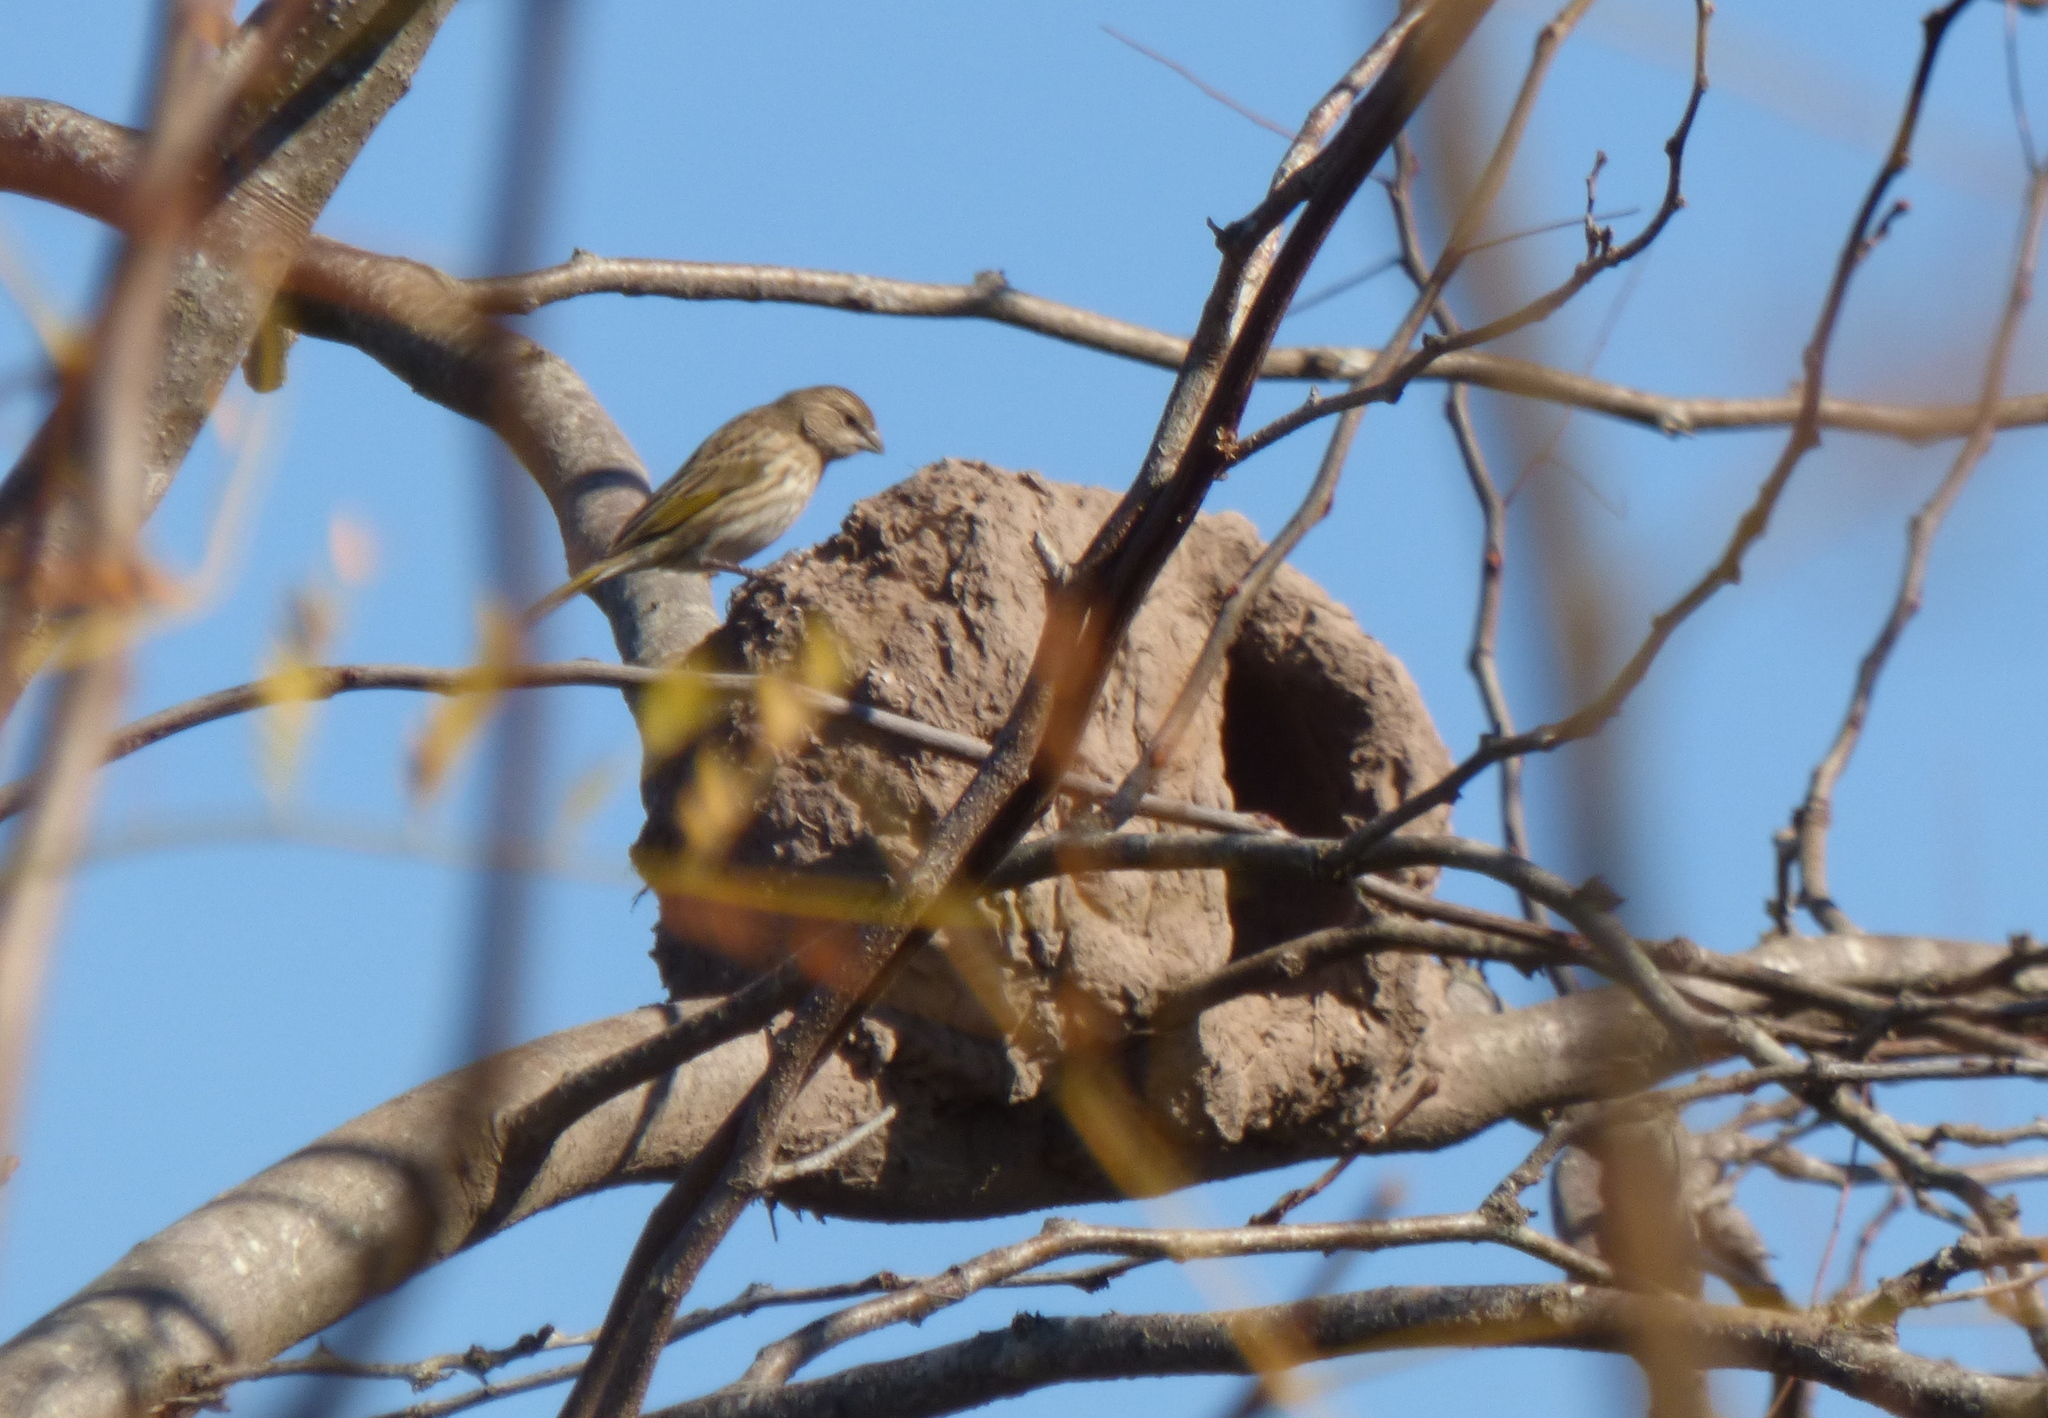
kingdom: Animalia
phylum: Chordata
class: Aves
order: Passeriformes
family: Thraupidae
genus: Sicalis
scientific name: Sicalis flaveola
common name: Saffron finch
